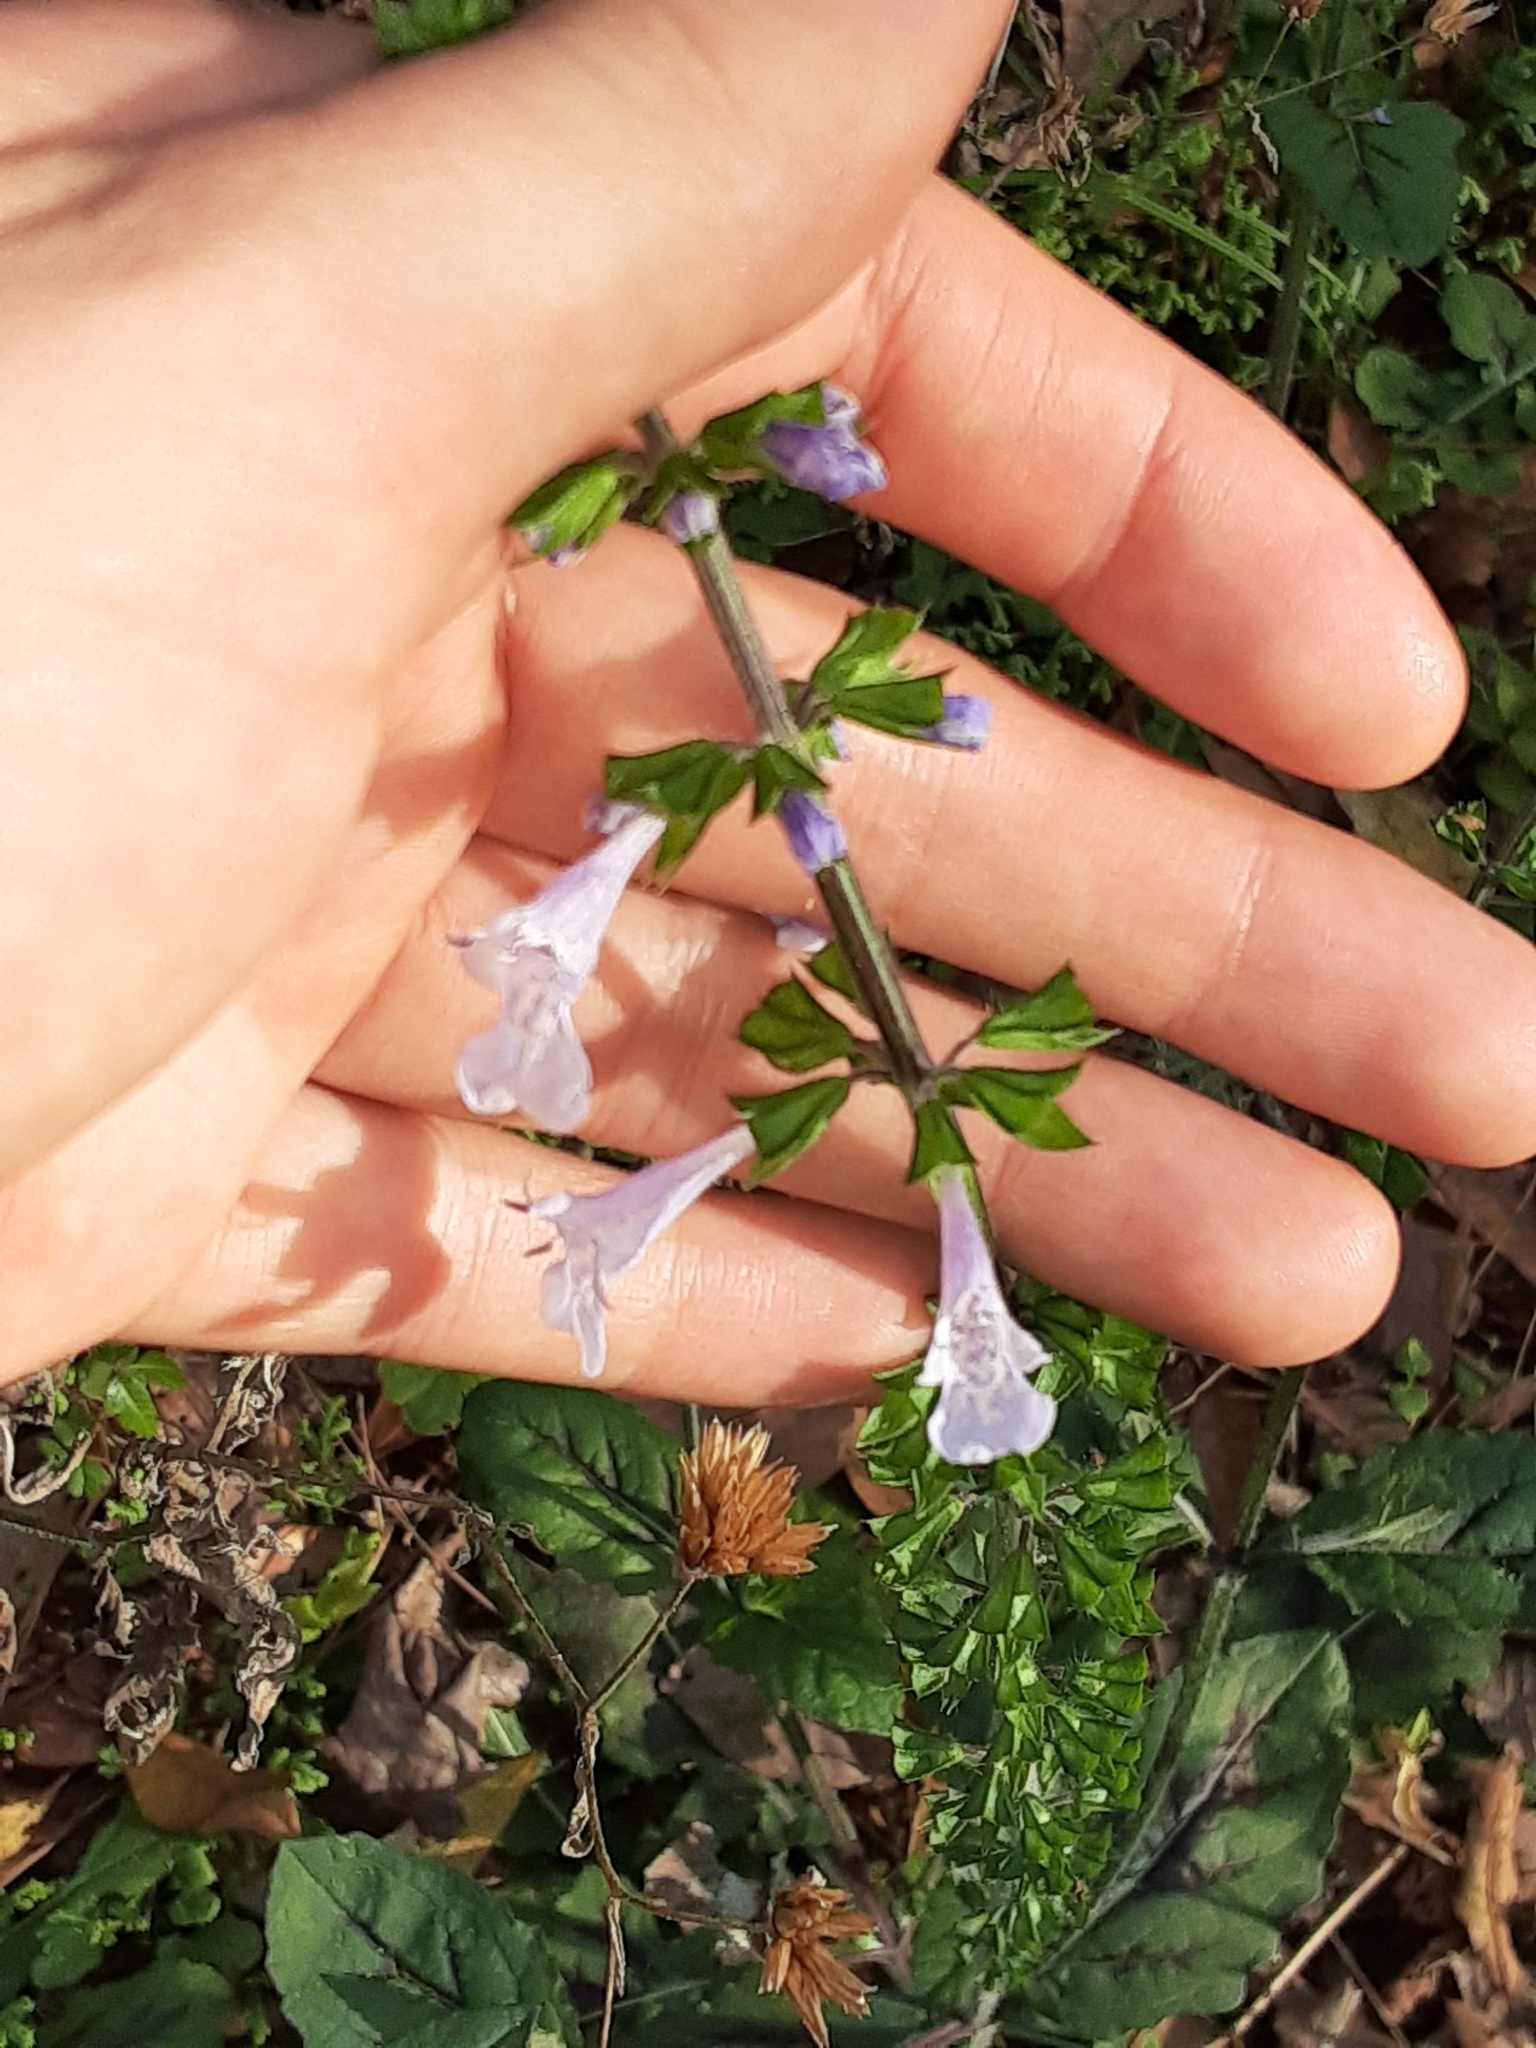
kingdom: Plantae
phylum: Tracheophyta
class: Magnoliopsida
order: Lamiales
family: Lamiaceae
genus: Salvia
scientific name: Salvia lyrata
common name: Cancerweed
